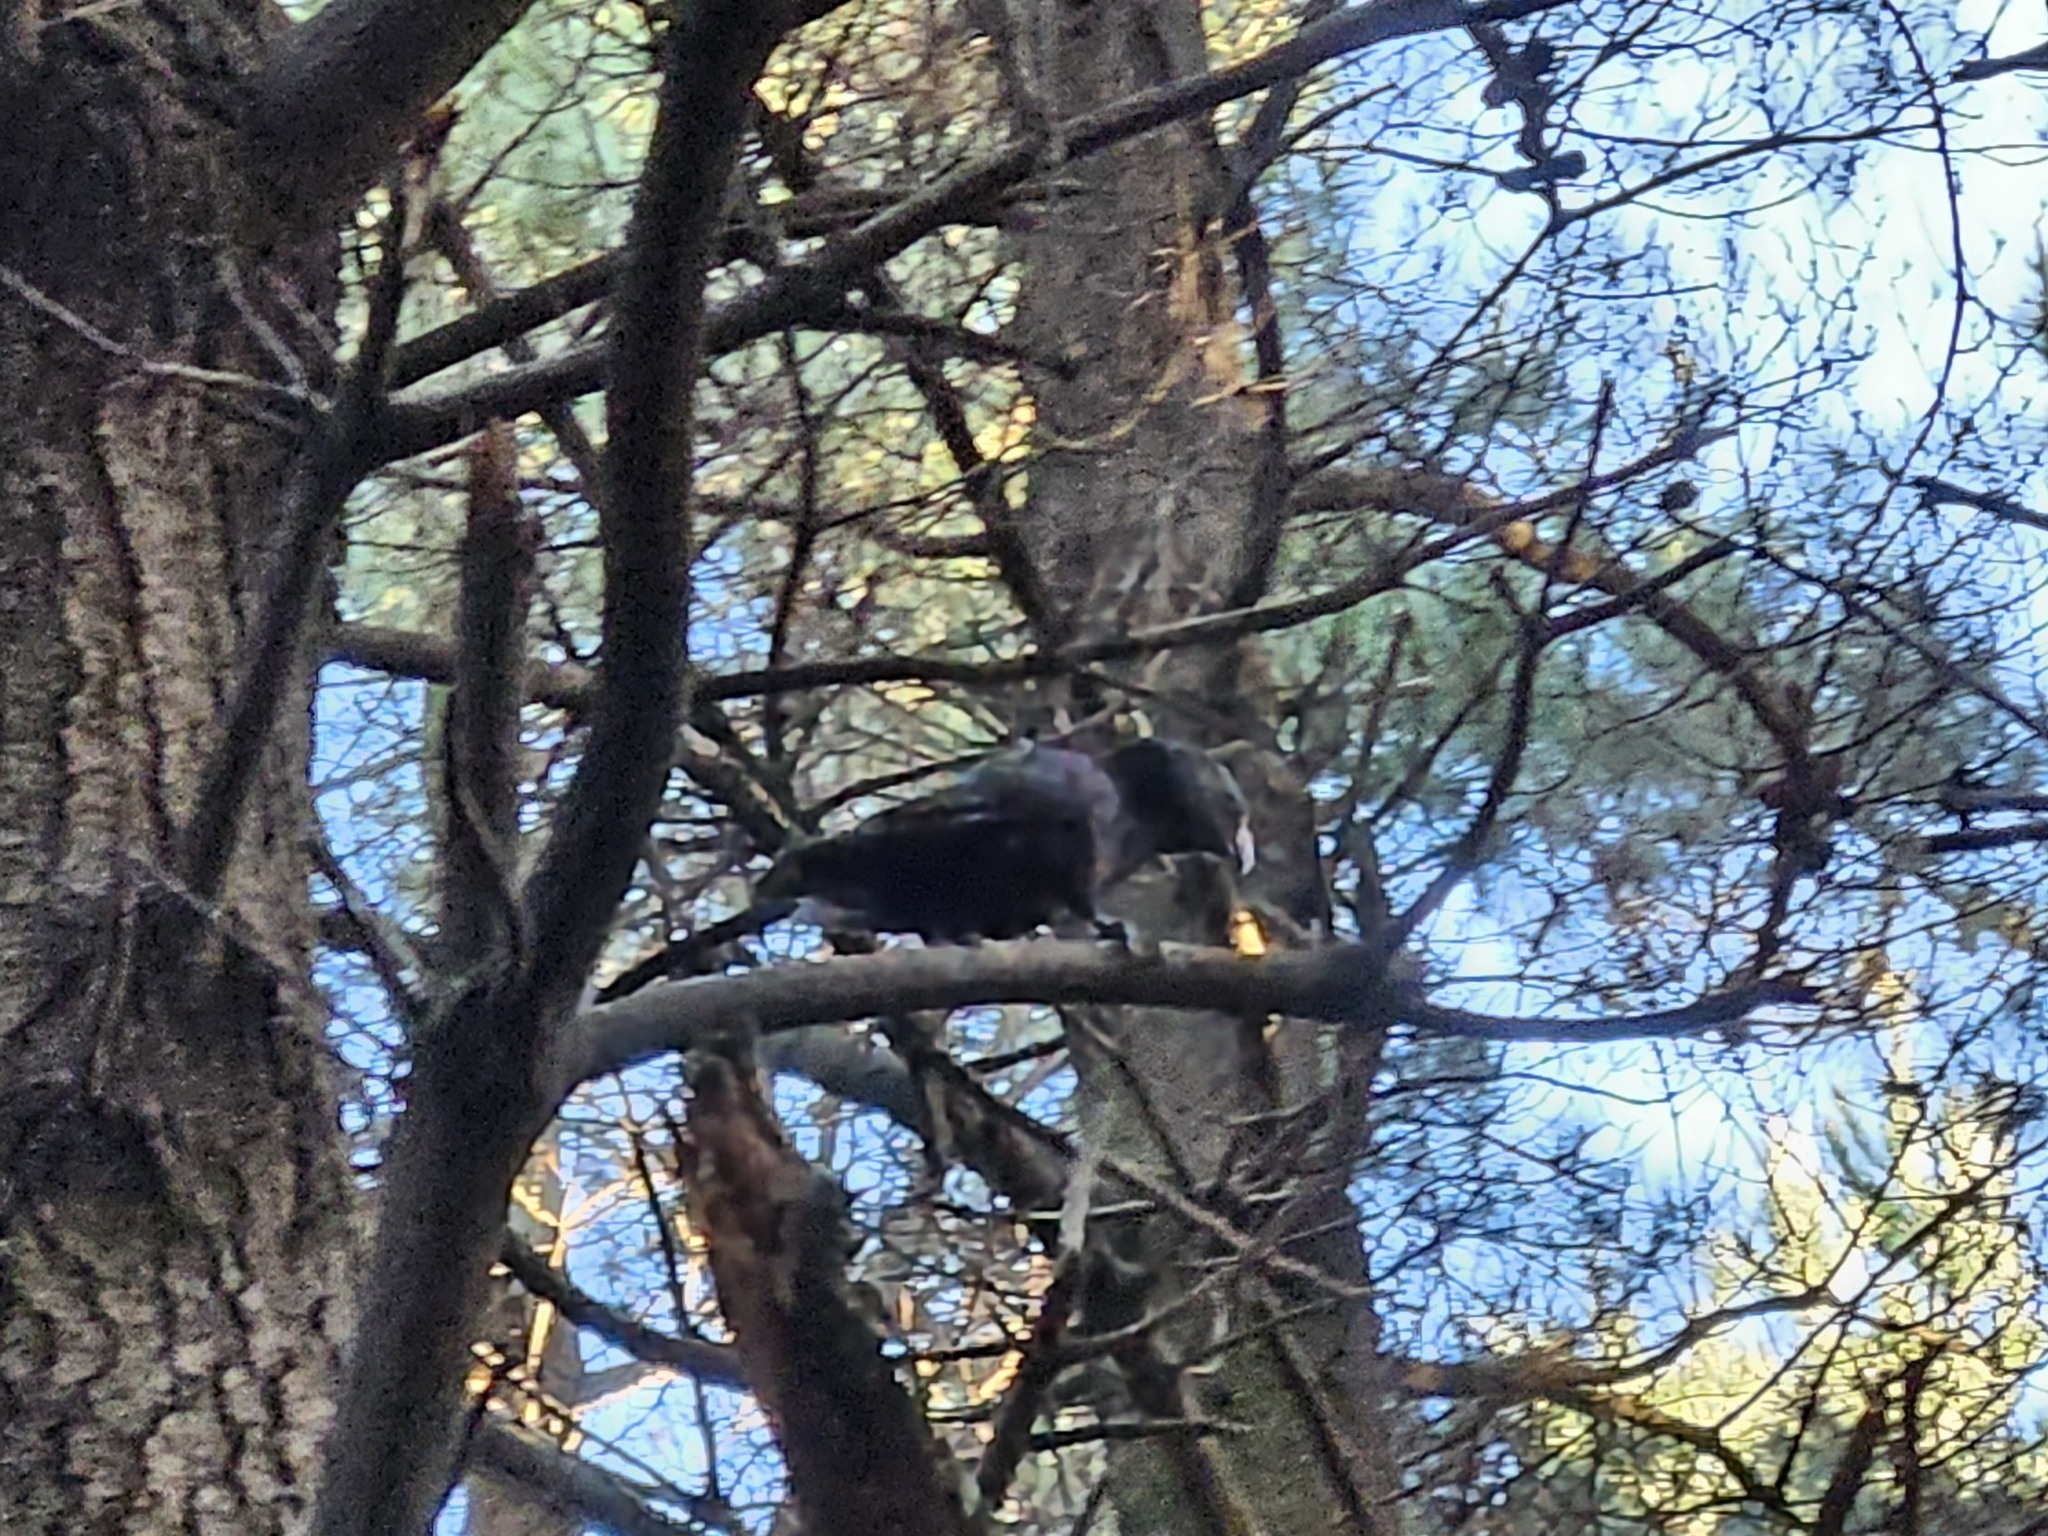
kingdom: Animalia
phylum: Chordata
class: Aves
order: Psittaciformes
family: Psittacidae
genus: Nestor
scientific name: Nestor meridionalis
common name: New zealand kaka
